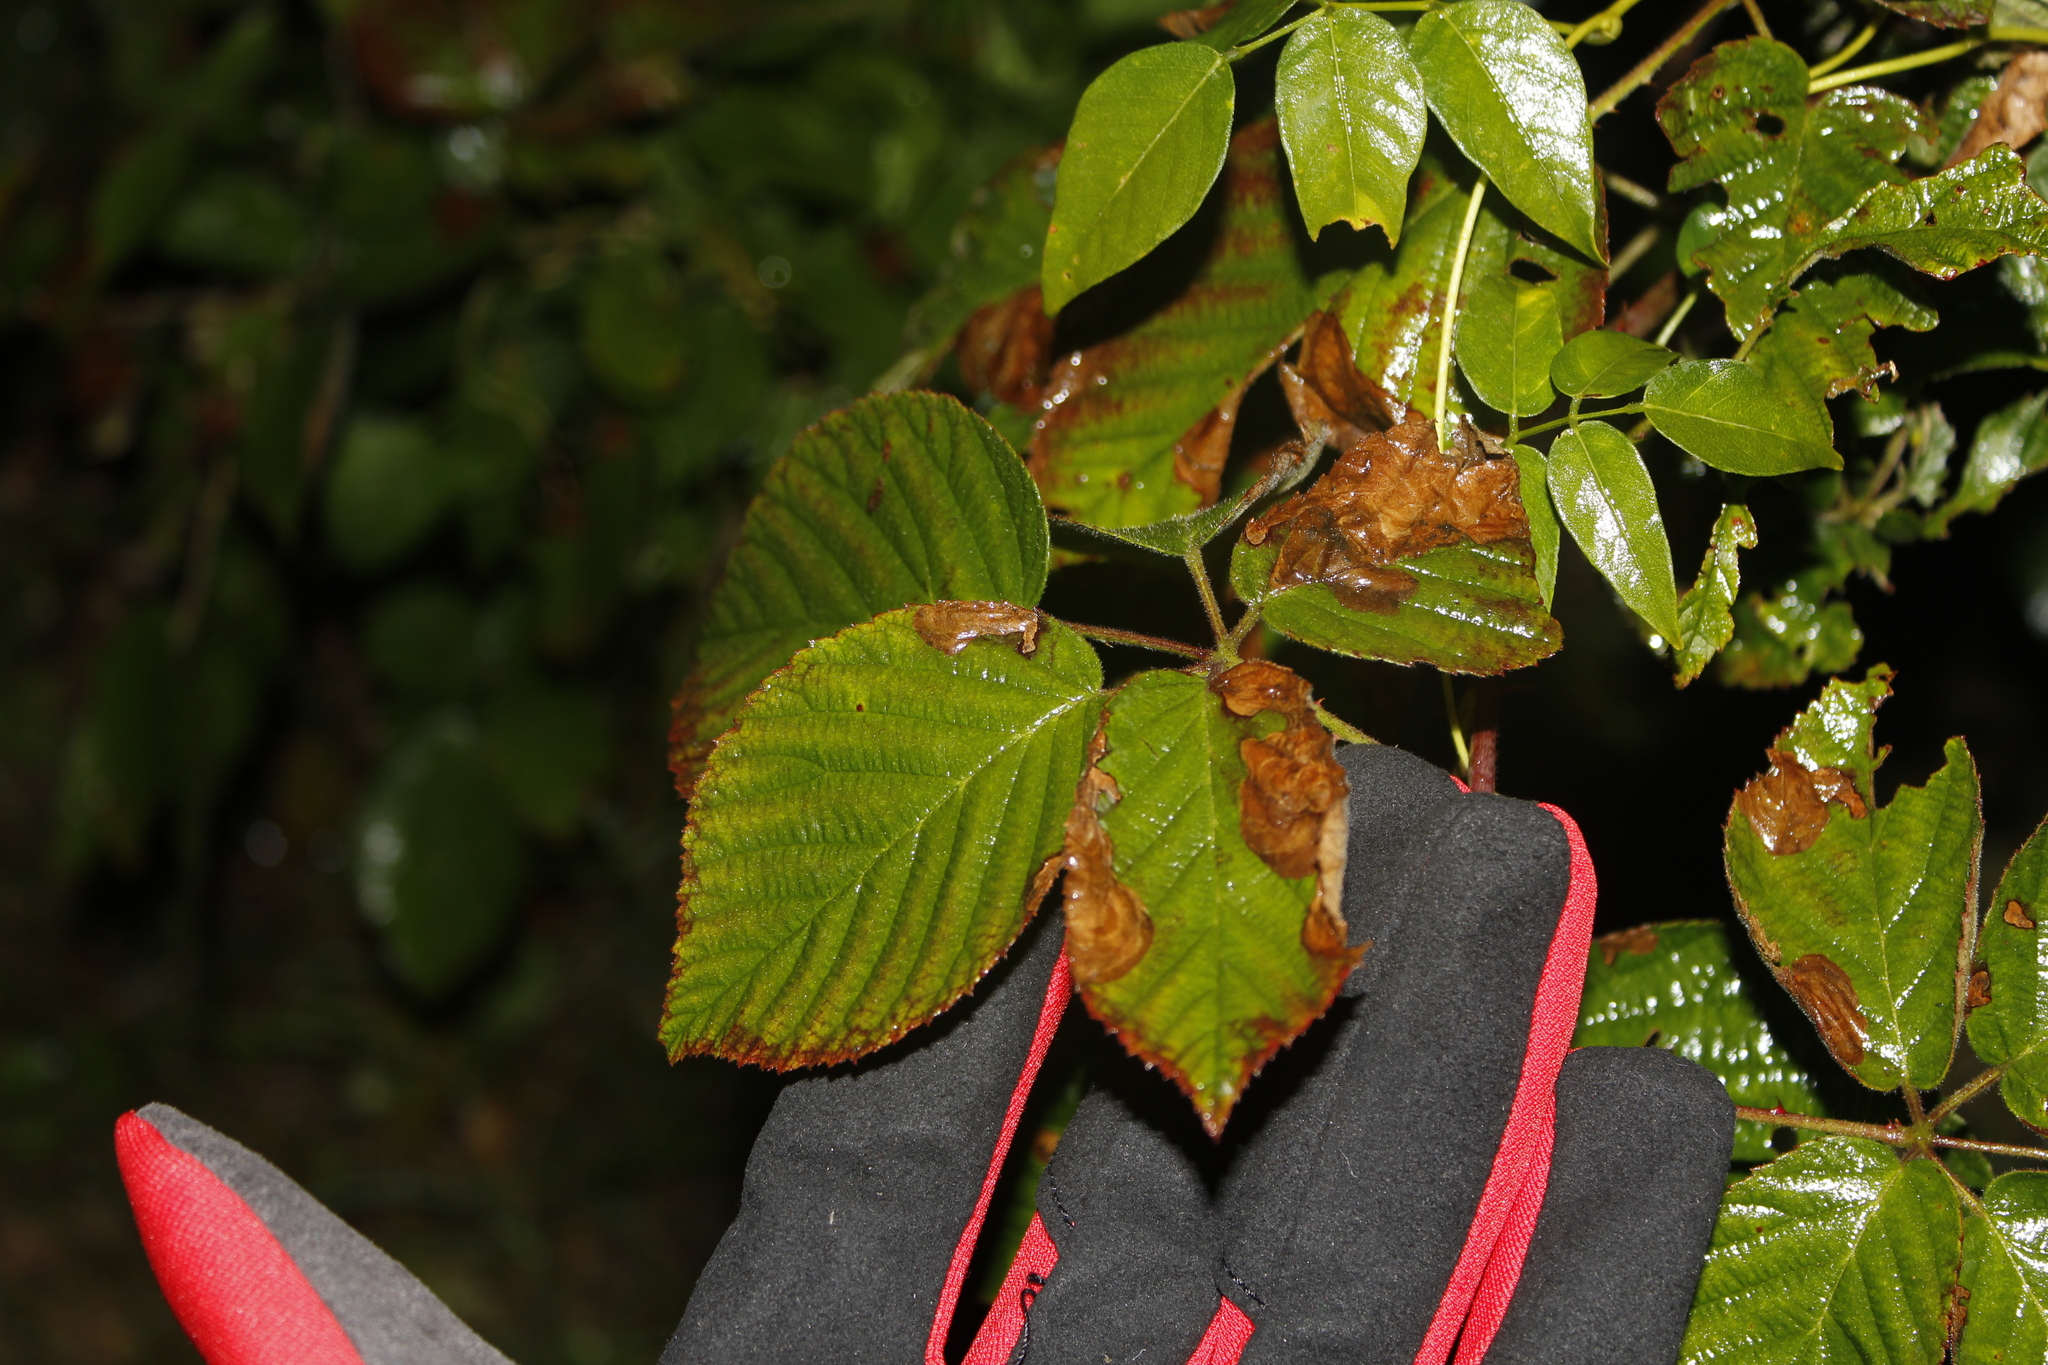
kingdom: Animalia
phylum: Arthropoda
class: Insecta
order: Hymenoptera
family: Tenthredinidae
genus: Metallus
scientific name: Metallus rohweri
